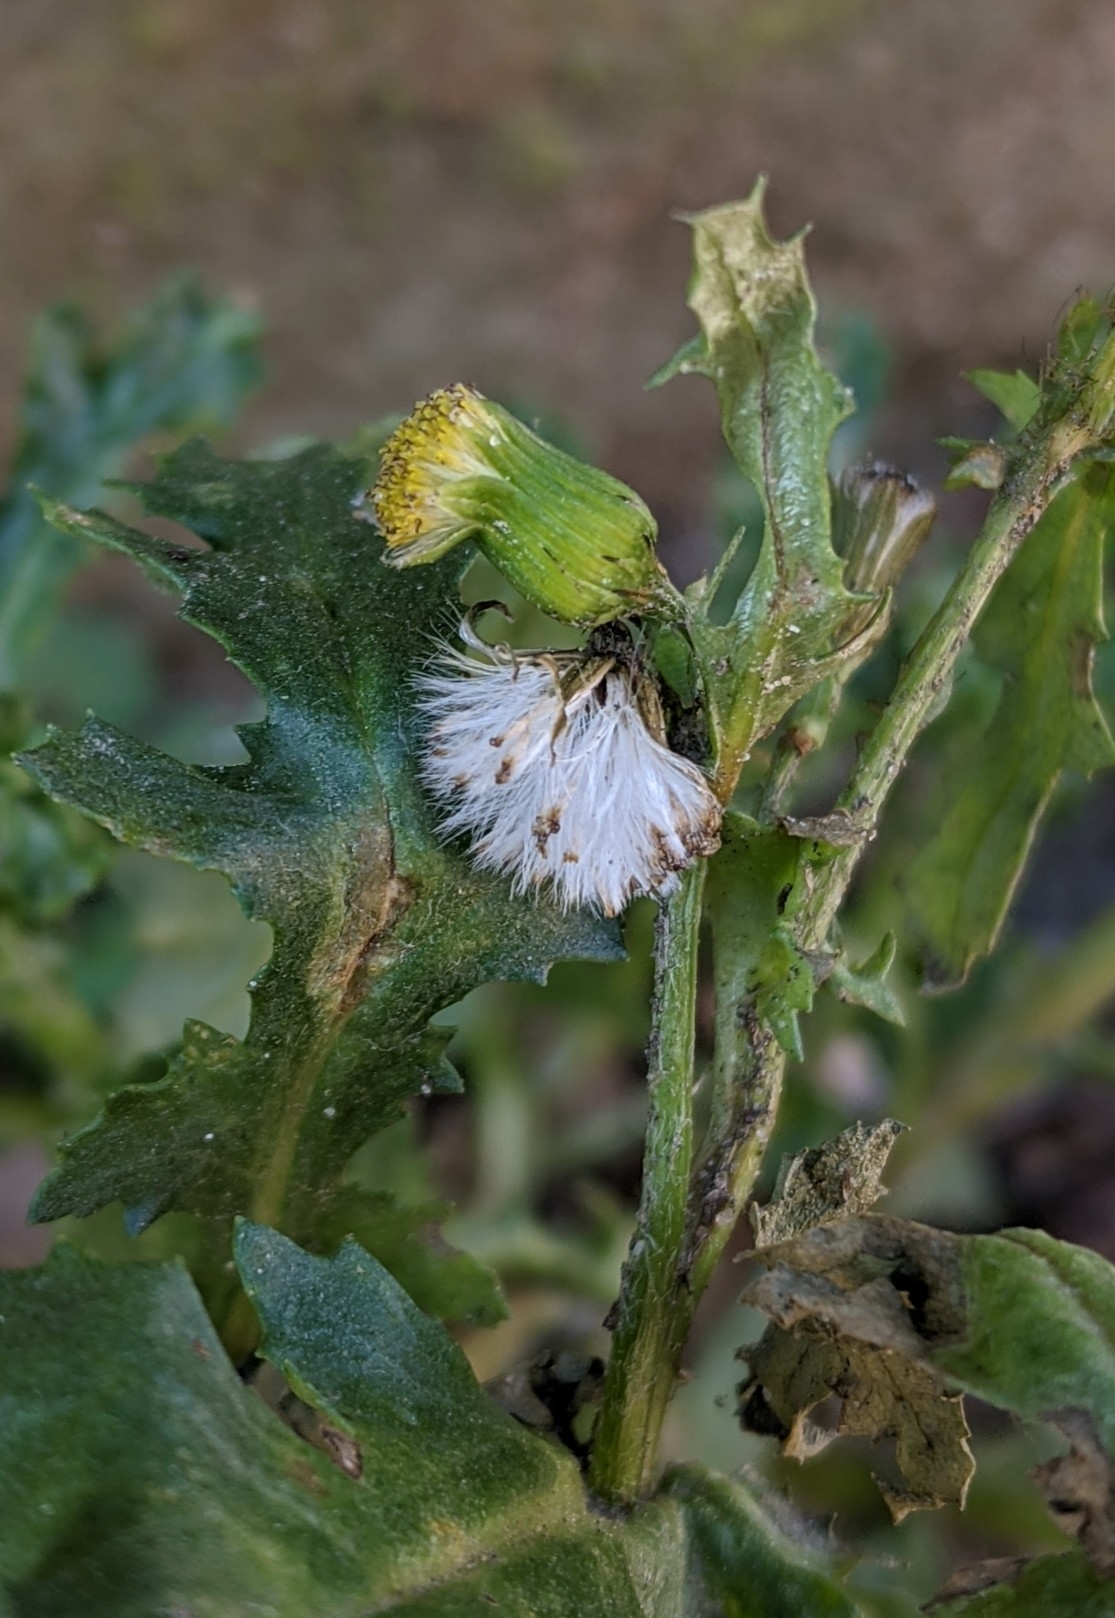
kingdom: Plantae
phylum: Tracheophyta
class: Magnoliopsida
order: Asterales
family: Asteraceae
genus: Senecio
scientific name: Senecio vulgaris
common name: Old-man-in-the-spring
